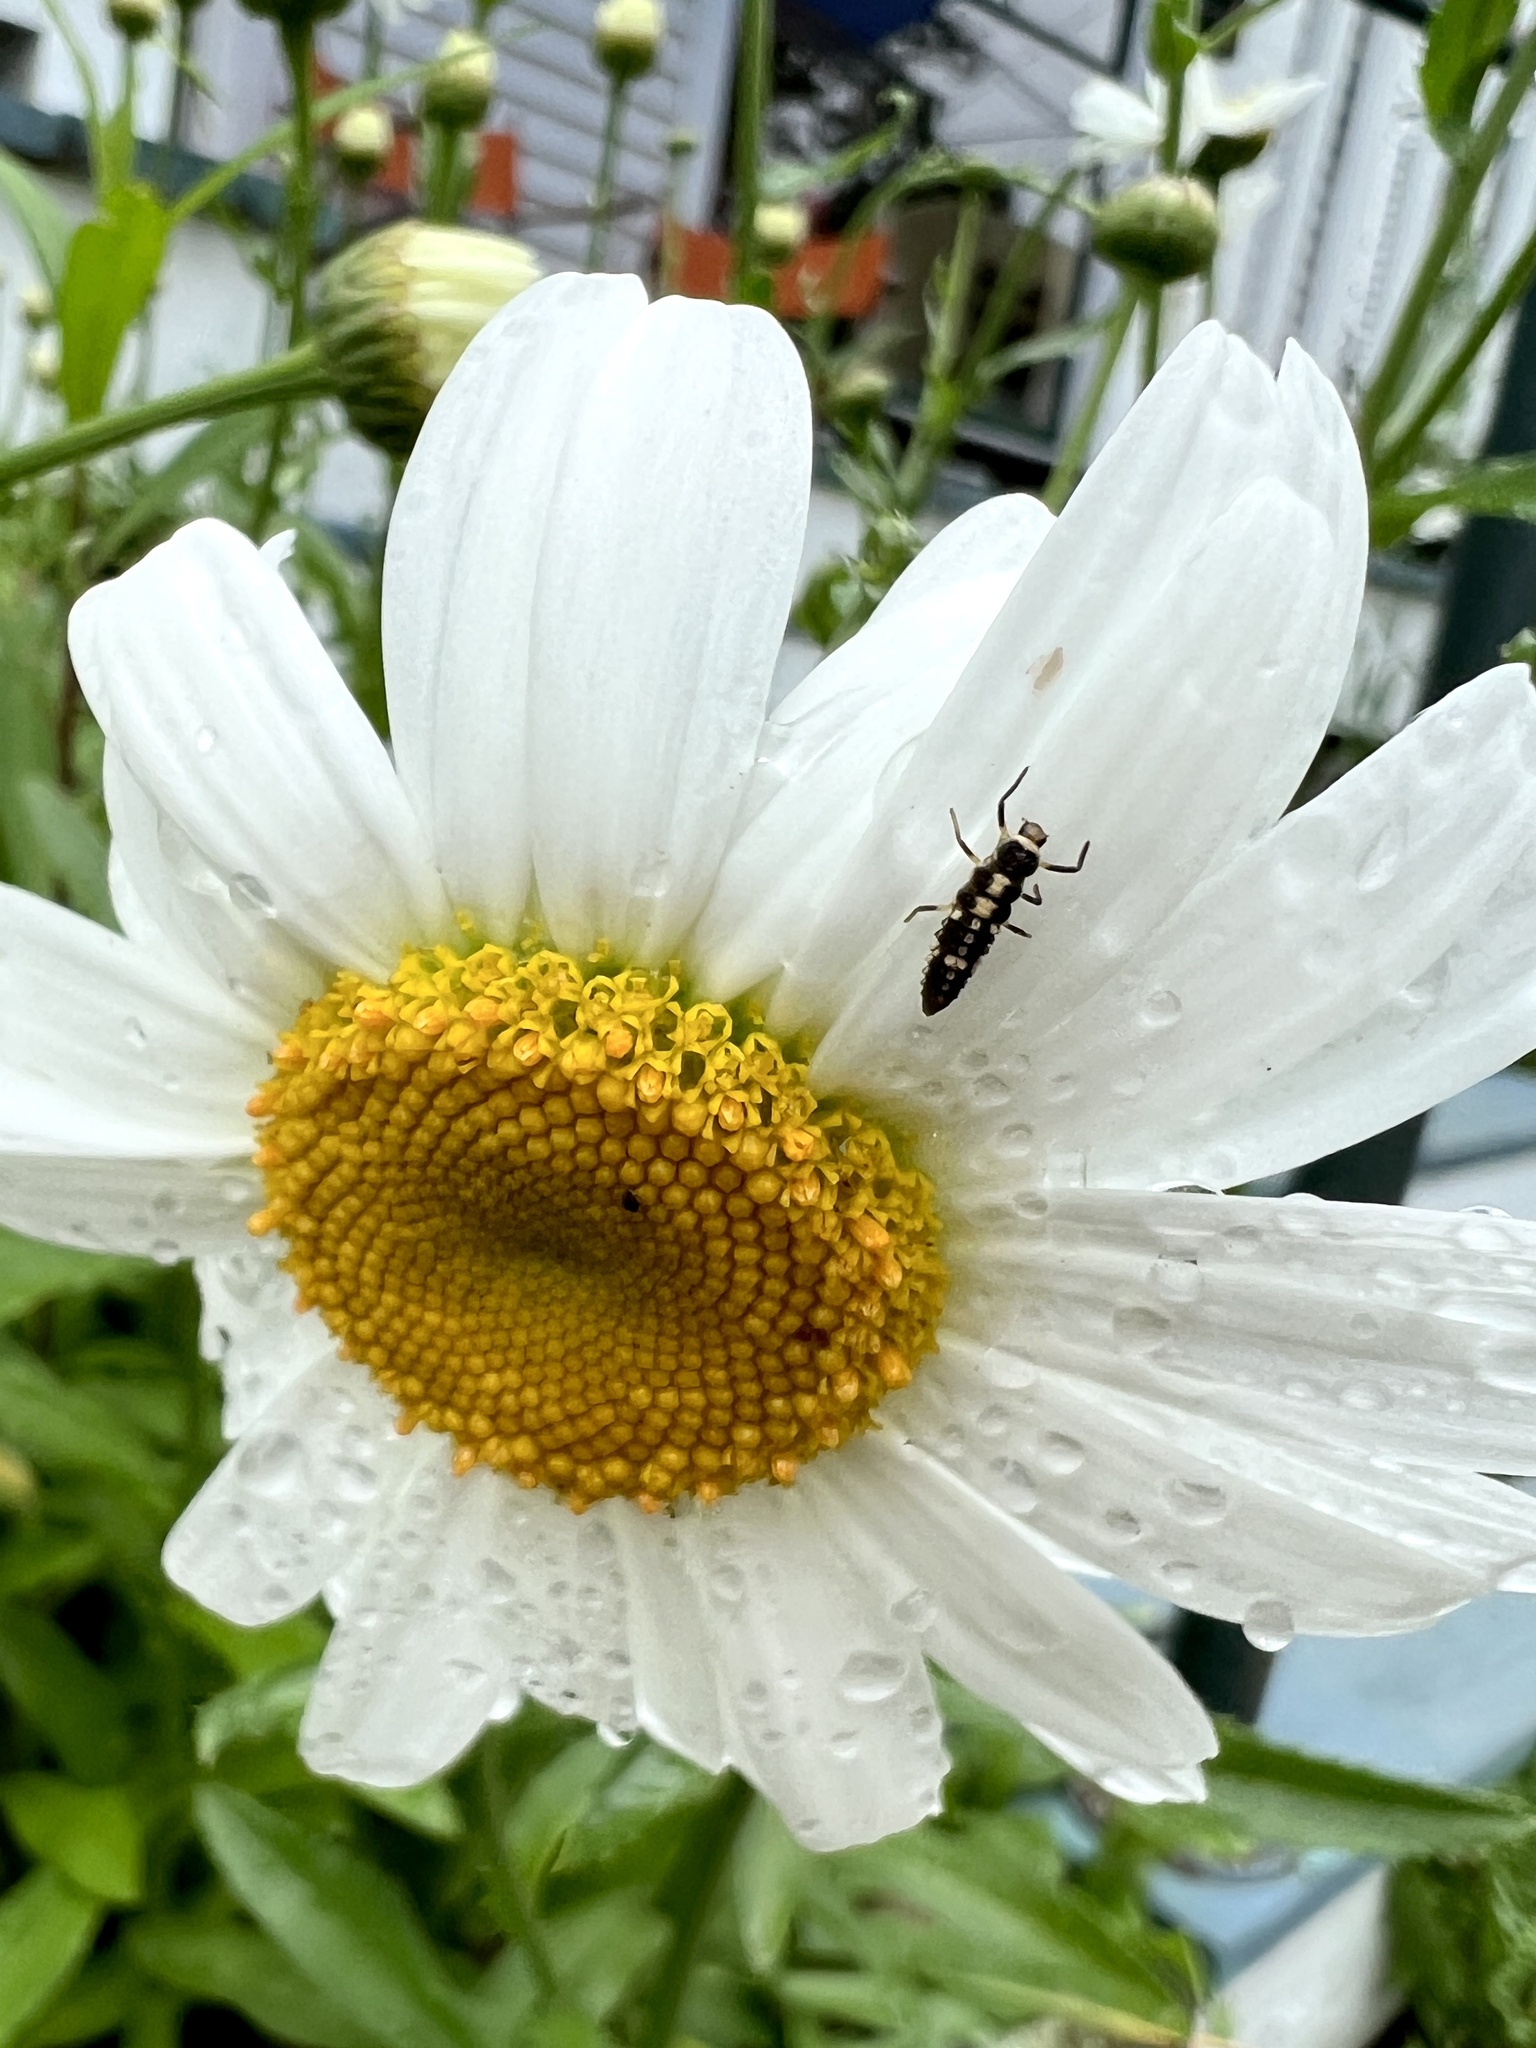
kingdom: Animalia
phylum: Arthropoda
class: Insecta
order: Coleoptera
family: Coccinellidae
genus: Propylaea
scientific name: Propylaea quatuordecimpunctata
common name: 14-spotted ladybird beetle
